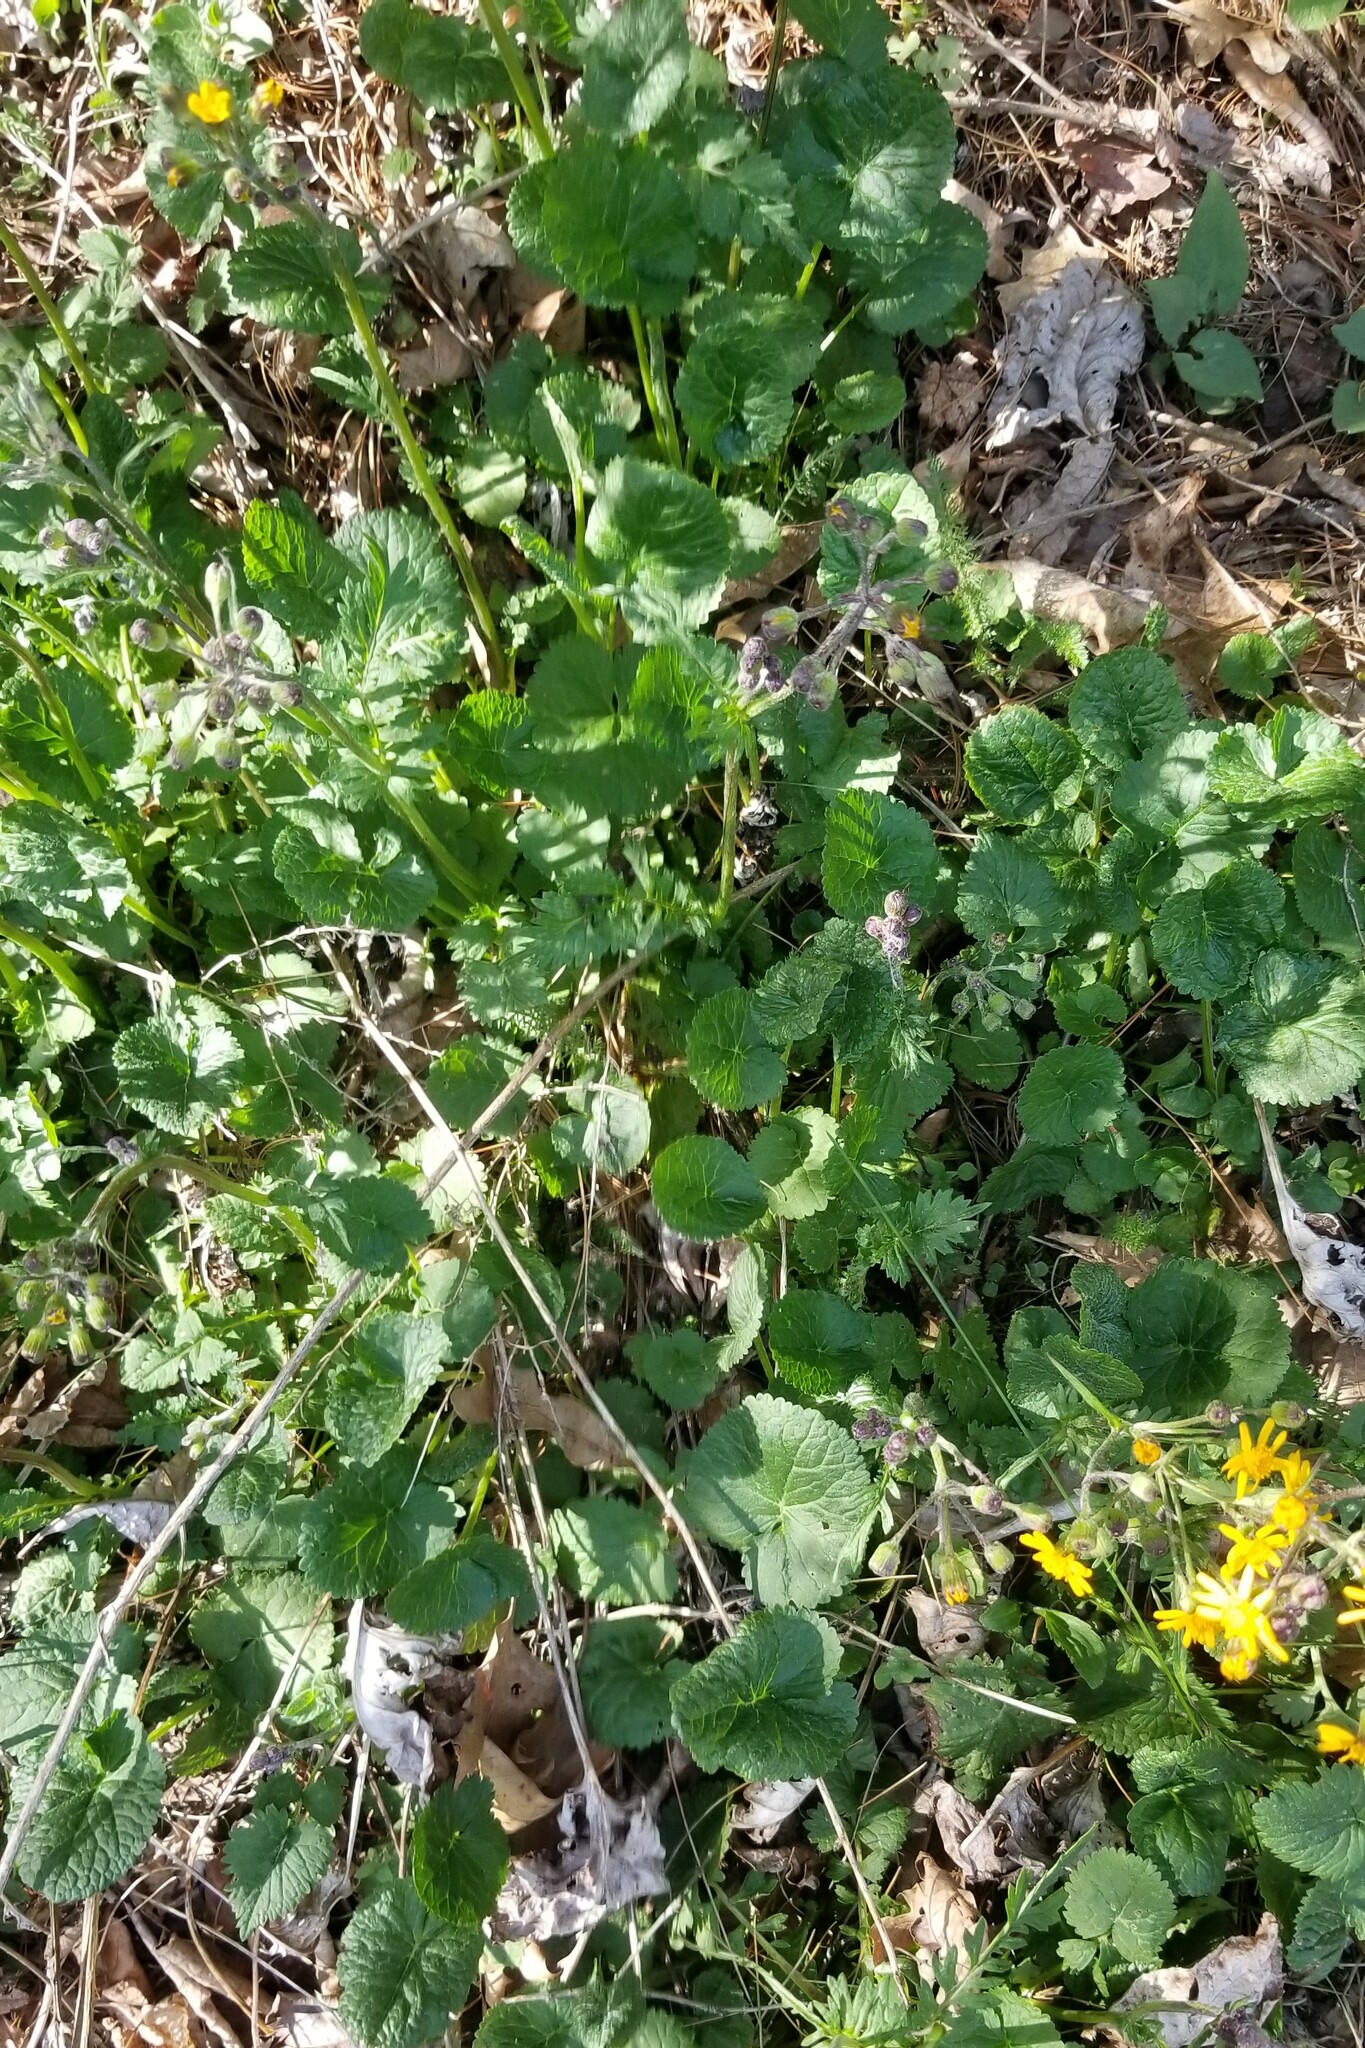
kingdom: Plantae
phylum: Tracheophyta
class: Magnoliopsida
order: Asterales
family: Asteraceae
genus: Packera
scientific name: Packera aurea
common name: Golden groundsel
